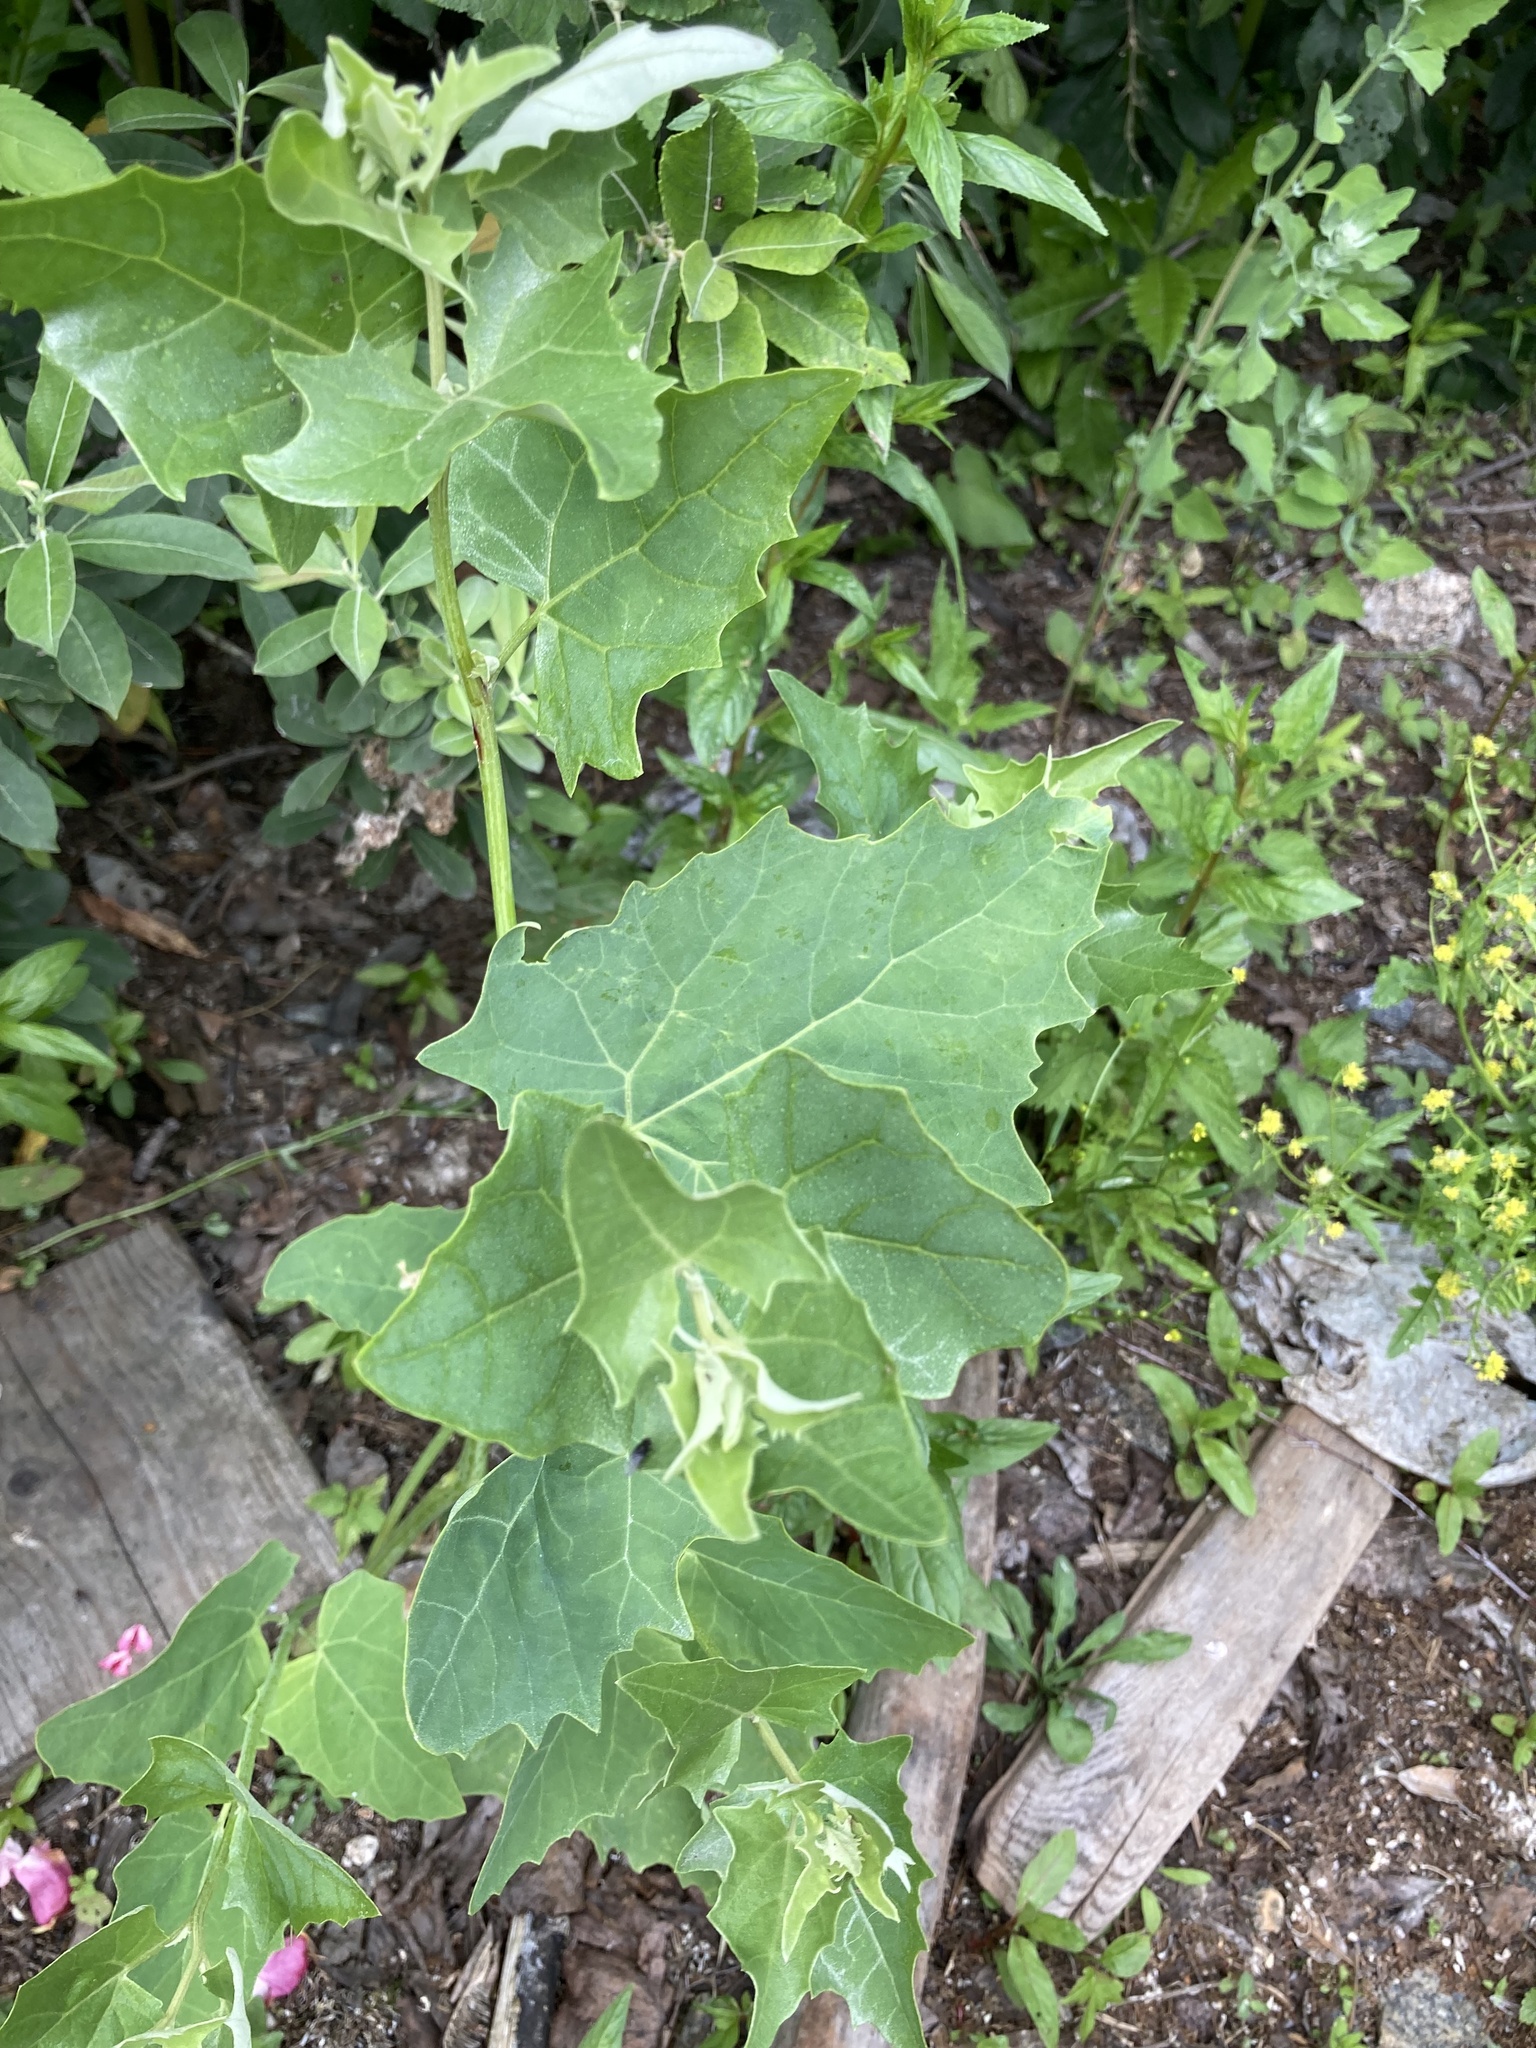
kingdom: Plantae
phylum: Tracheophyta
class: Magnoliopsida
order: Caryophyllales
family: Amaranthaceae
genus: Atriplex
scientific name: Atriplex sagittata
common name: Purple orache
